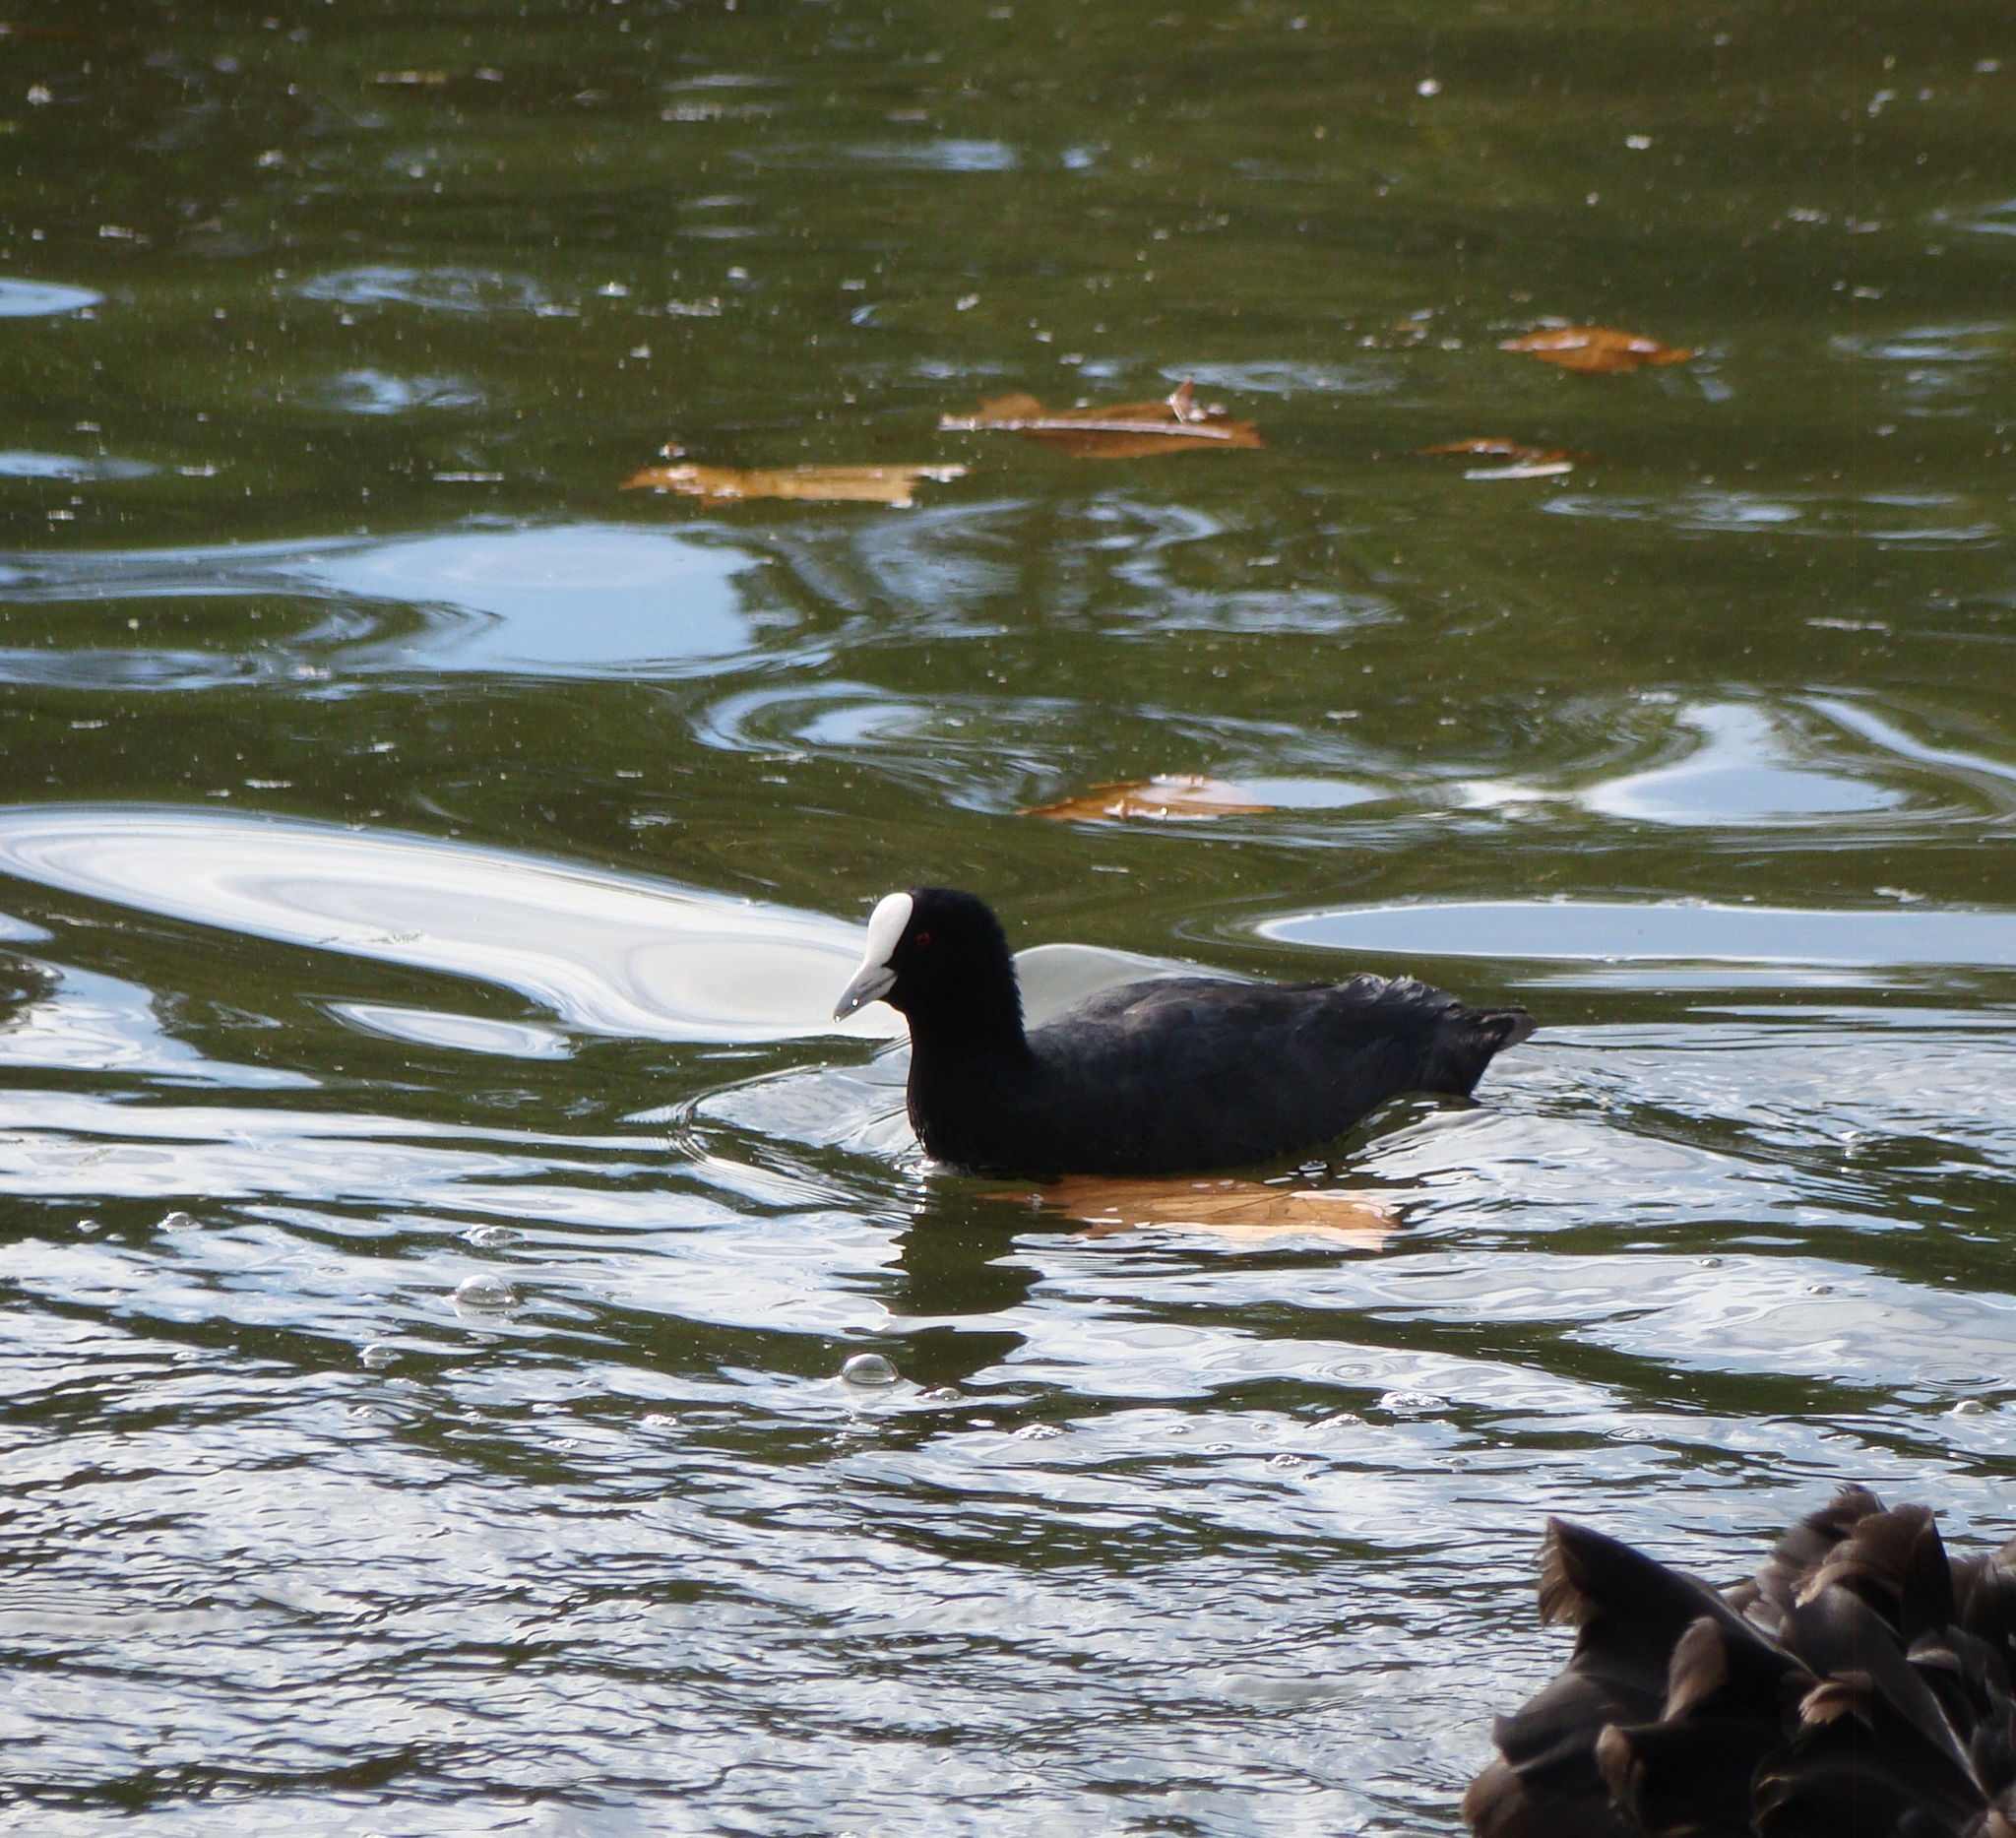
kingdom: Animalia
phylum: Chordata
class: Aves
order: Gruiformes
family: Rallidae
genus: Fulica
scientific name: Fulica atra
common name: Eurasian coot
